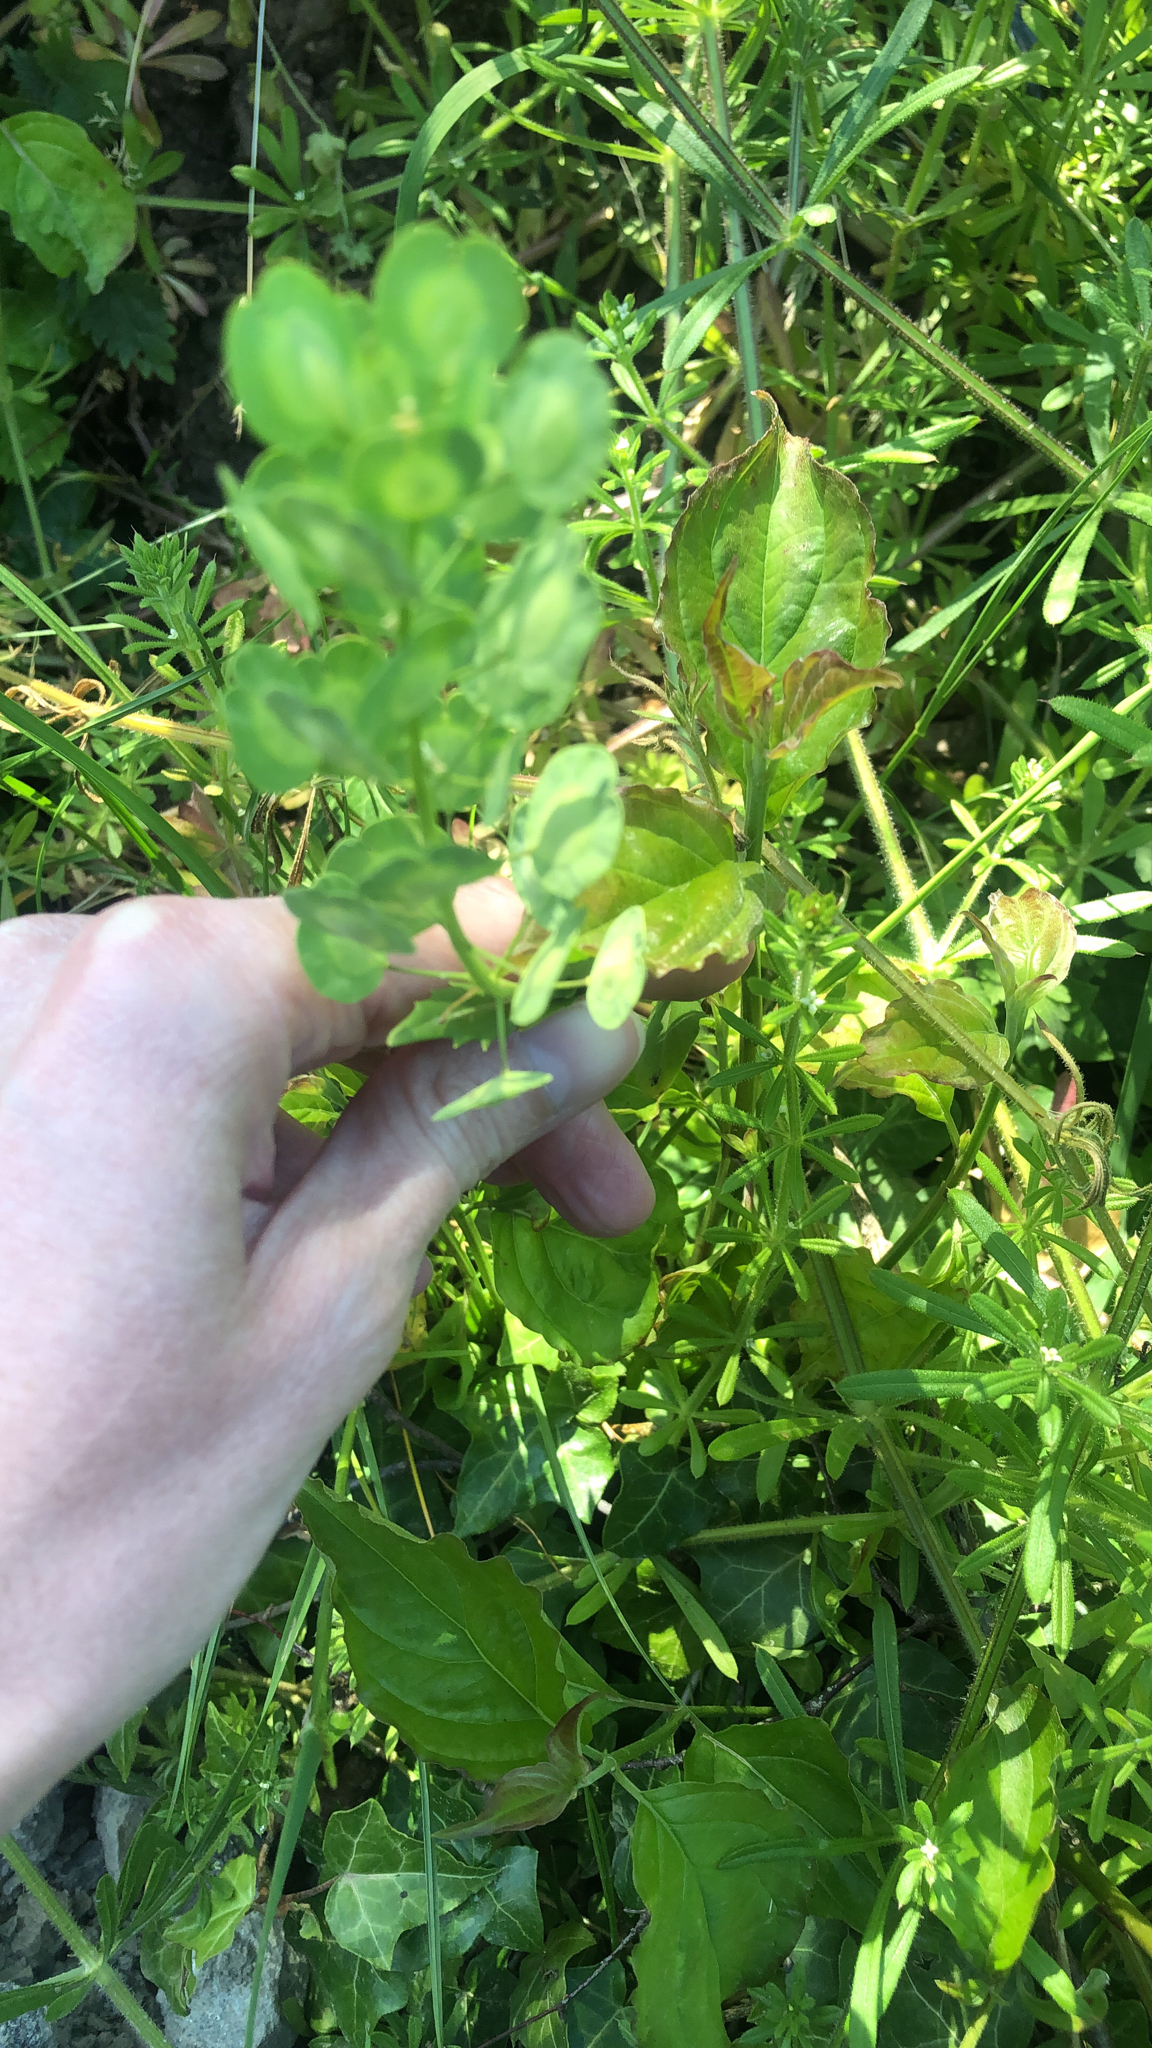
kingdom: Plantae
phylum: Tracheophyta
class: Magnoliopsida
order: Brassicales
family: Brassicaceae
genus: Thlaspi
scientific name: Thlaspi arvense
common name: Field pennycress
